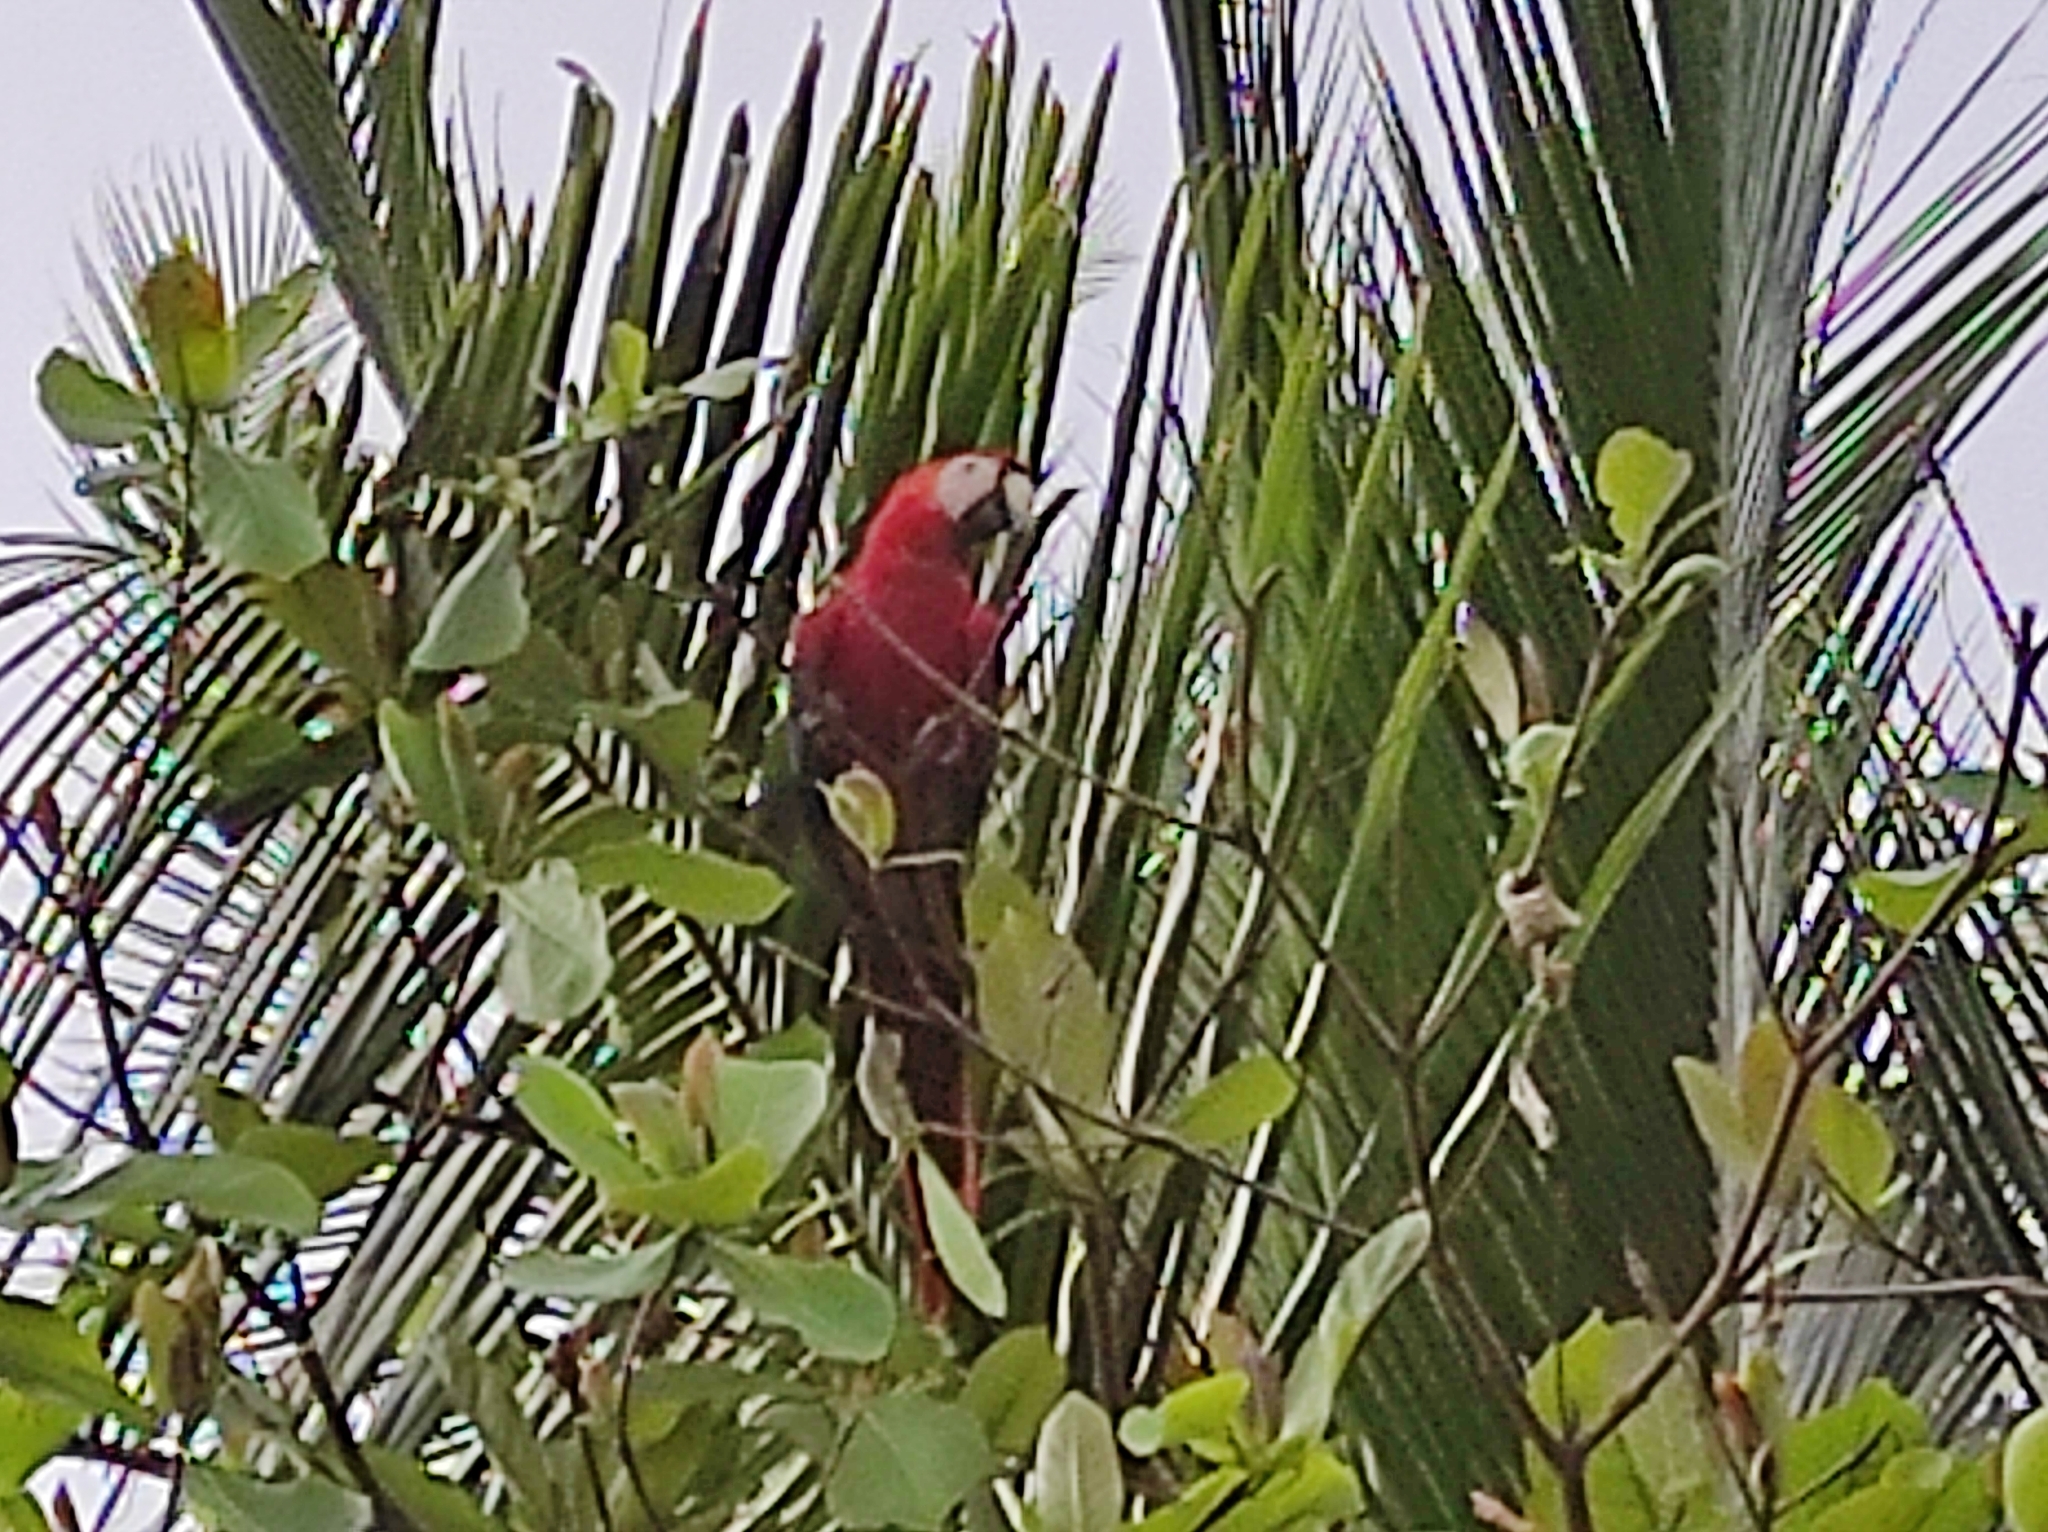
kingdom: Animalia
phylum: Chordata
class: Aves
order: Psittaciformes
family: Psittacidae
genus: Ara
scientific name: Ara macao
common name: Scarlet macaw
